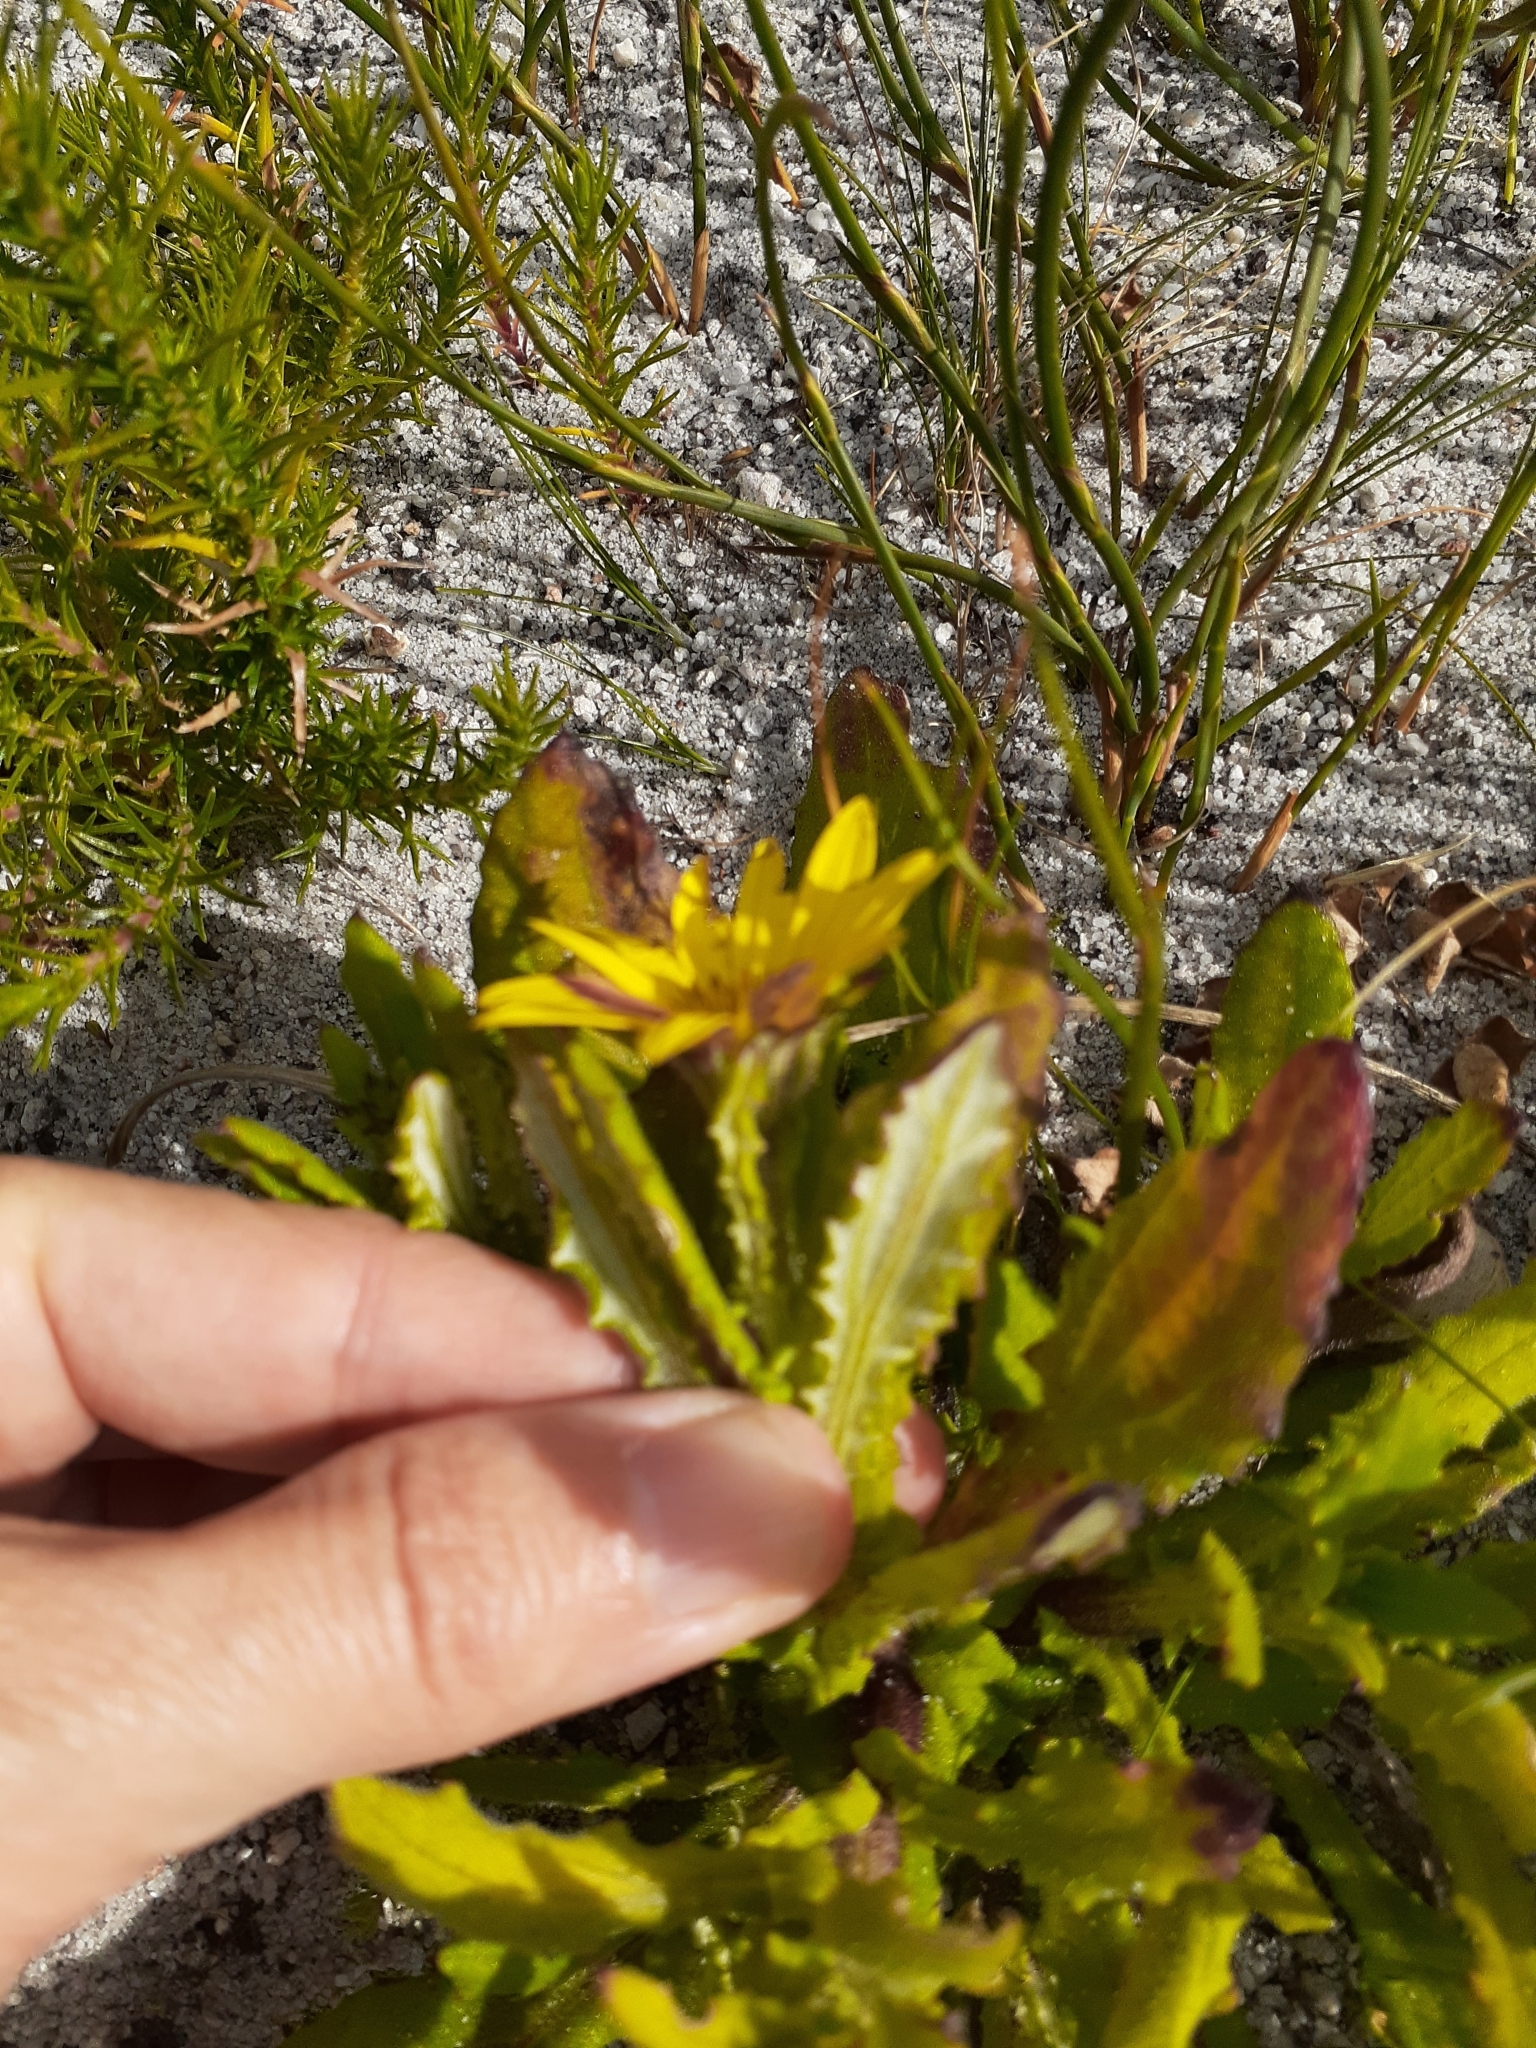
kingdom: Plantae
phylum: Tracheophyta
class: Magnoliopsida
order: Asterales
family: Asteraceae
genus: Arctotis
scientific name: Arctotis scabra
